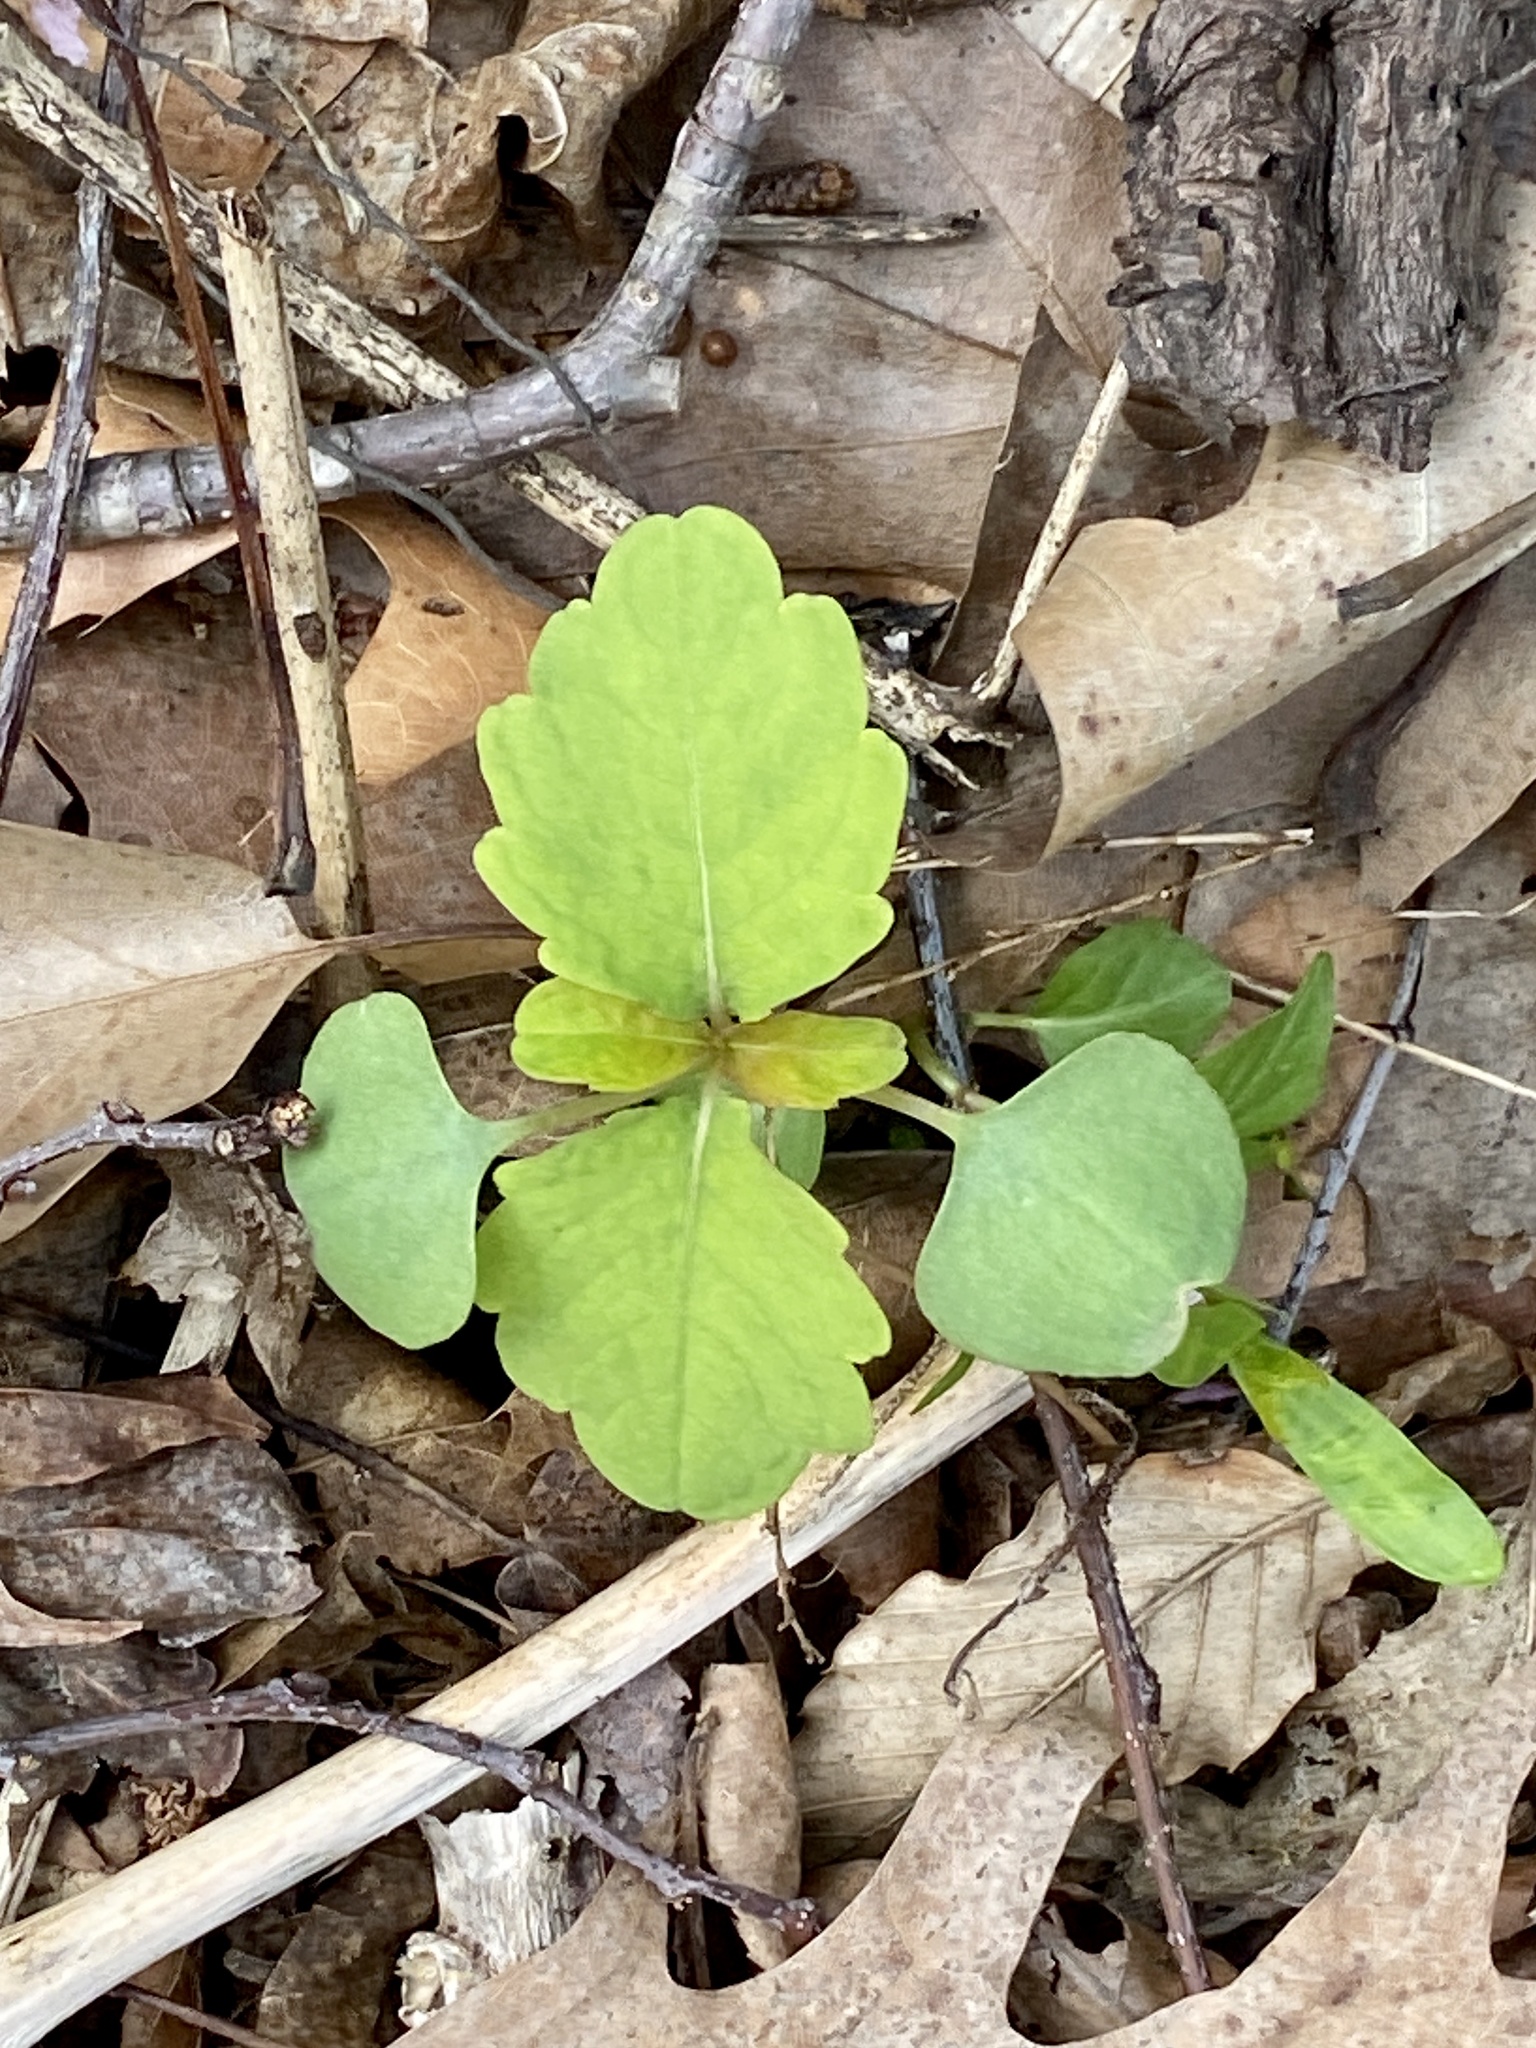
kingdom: Plantae
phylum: Tracheophyta
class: Magnoliopsida
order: Ericales
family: Balsaminaceae
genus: Impatiens
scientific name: Impatiens capensis
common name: Orange balsam
